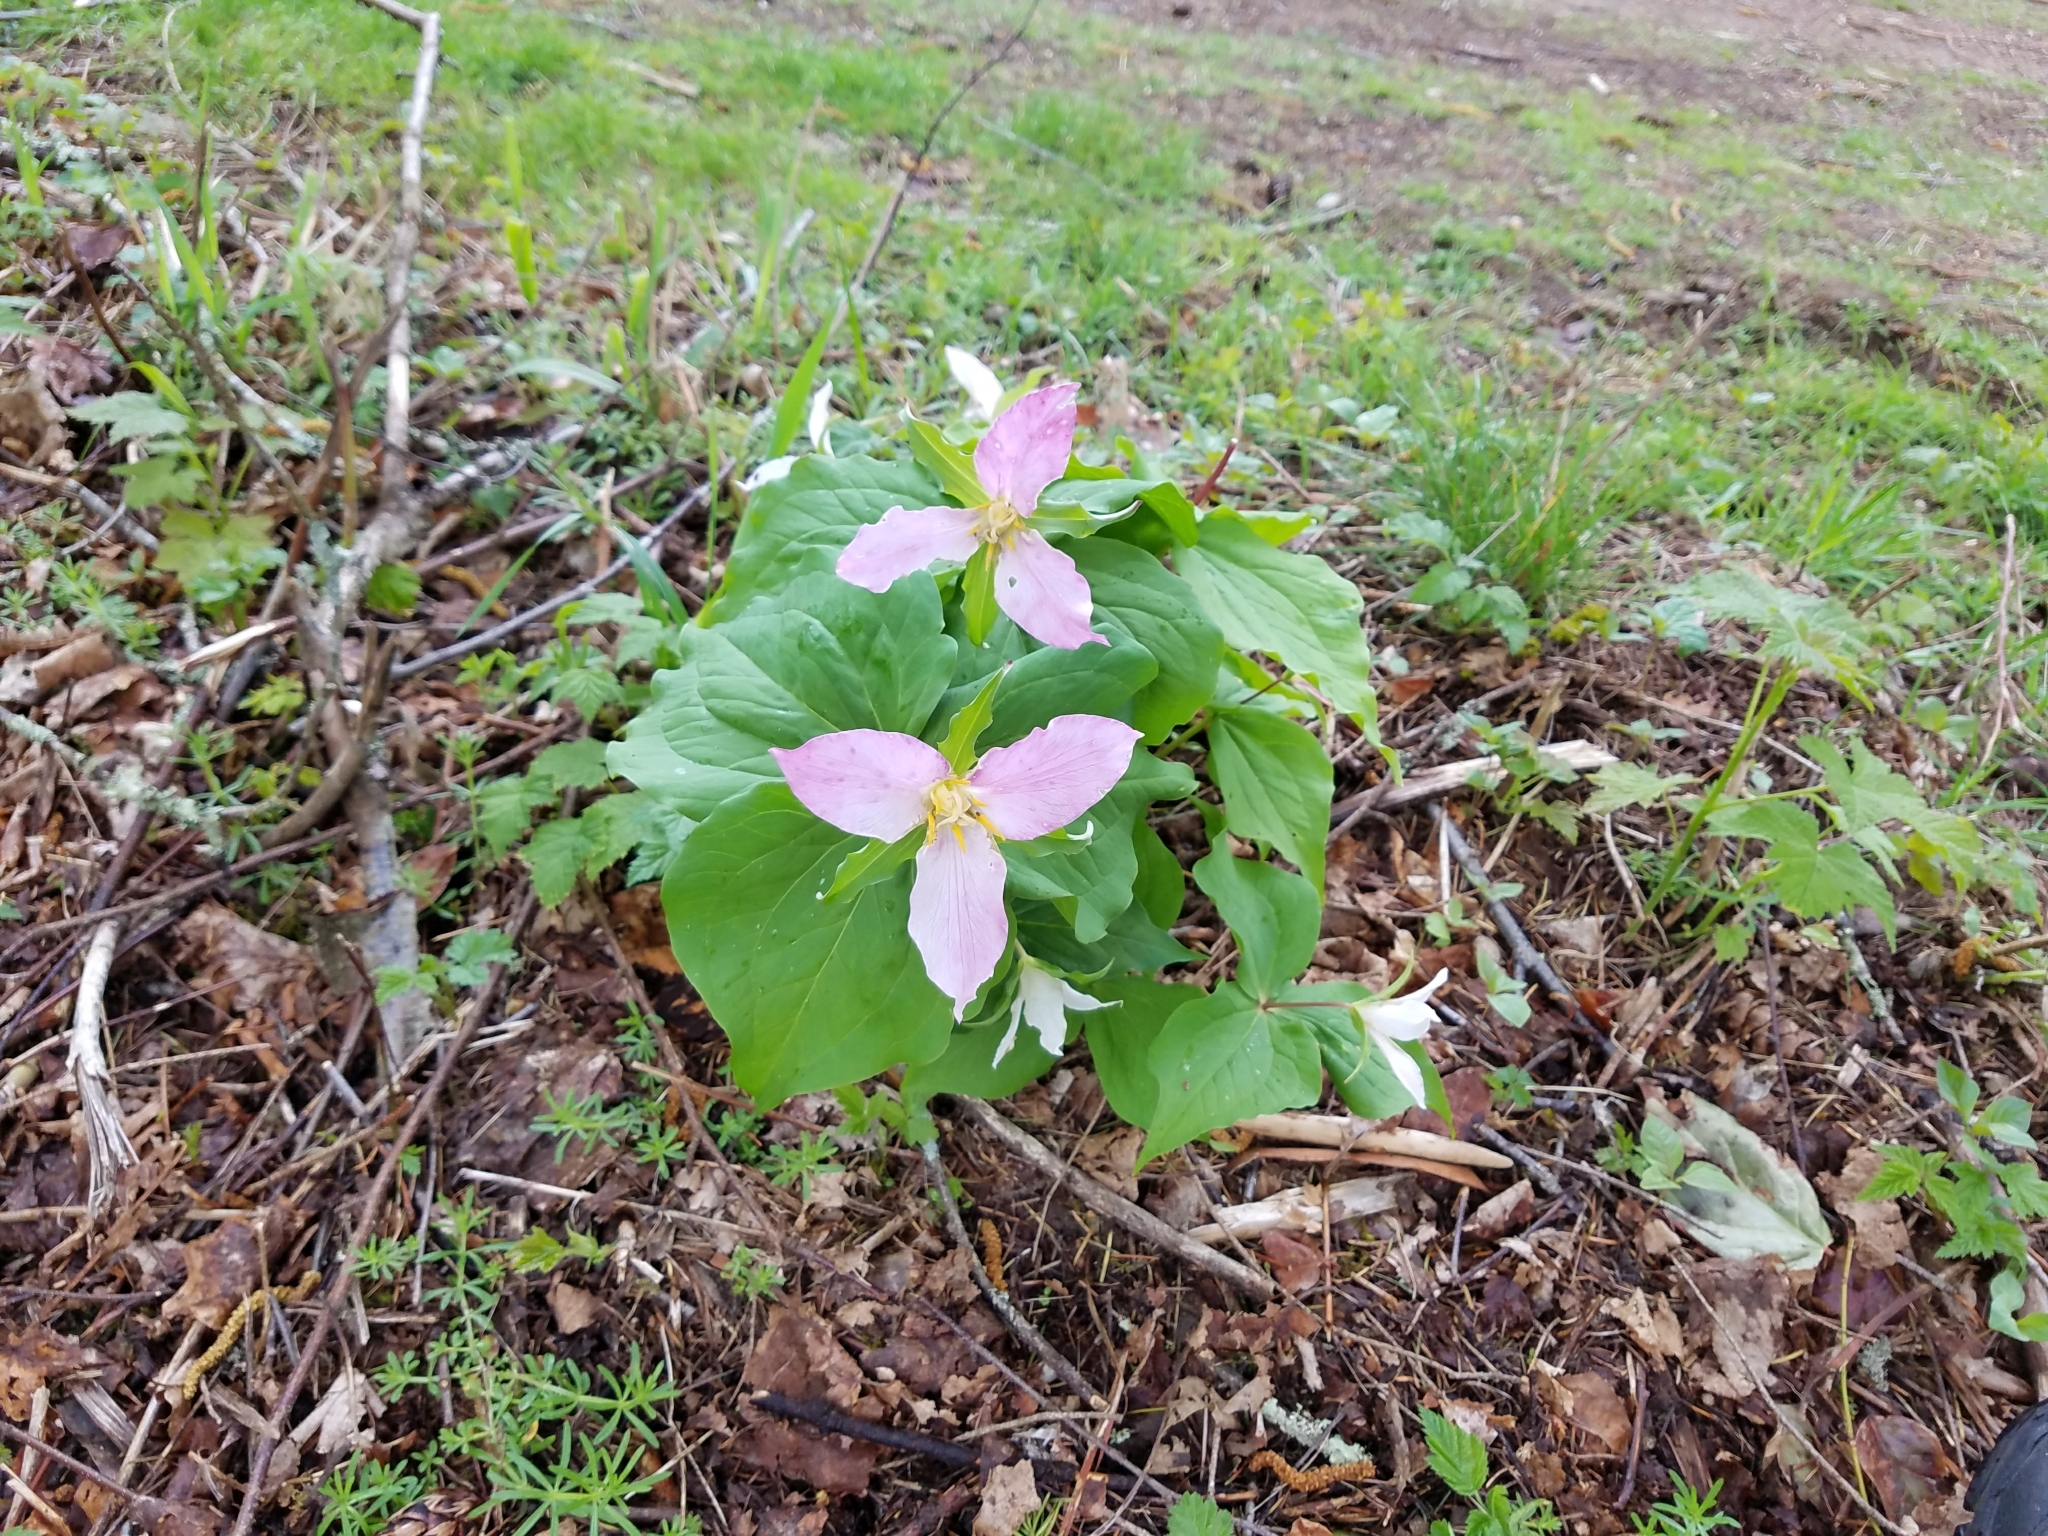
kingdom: Plantae
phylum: Tracheophyta
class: Liliopsida
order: Liliales
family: Melanthiaceae
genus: Trillium
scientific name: Trillium ovatum
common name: Pacific trillium
